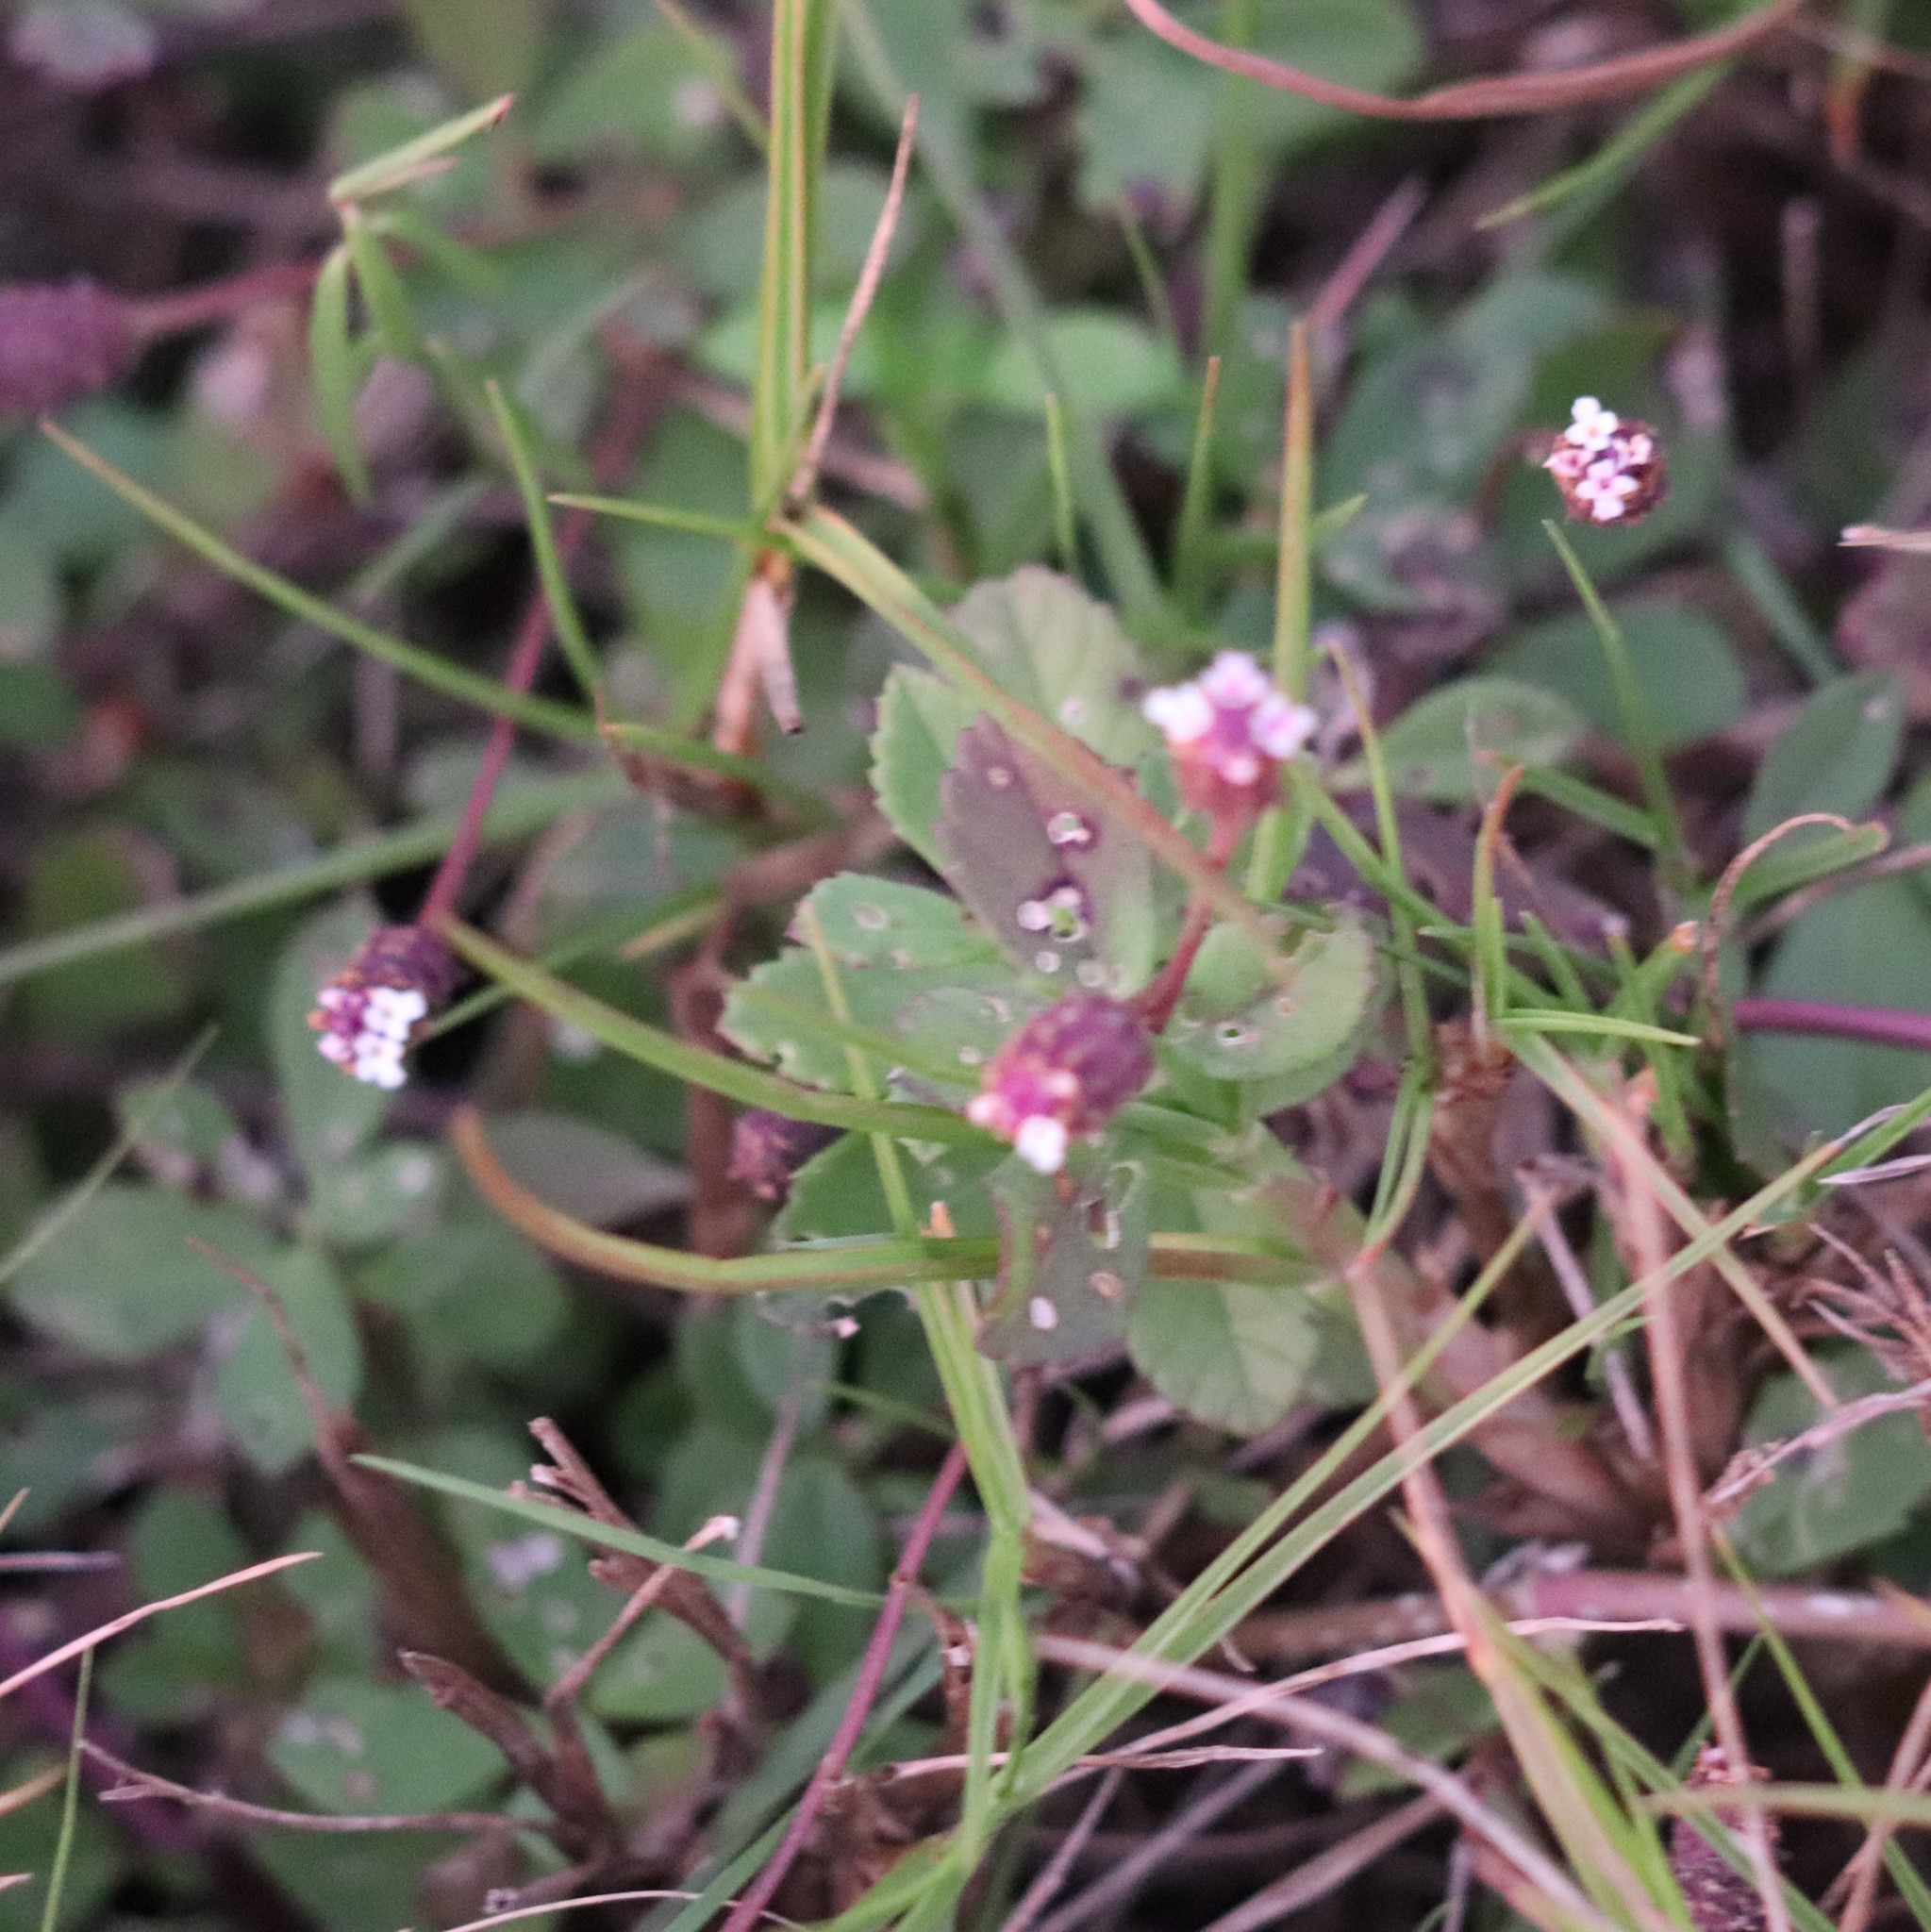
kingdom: Plantae
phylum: Tracheophyta
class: Magnoliopsida
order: Lamiales
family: Verbenaceae
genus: Phyla
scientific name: Phyla nodiflora
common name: Frogfruit
